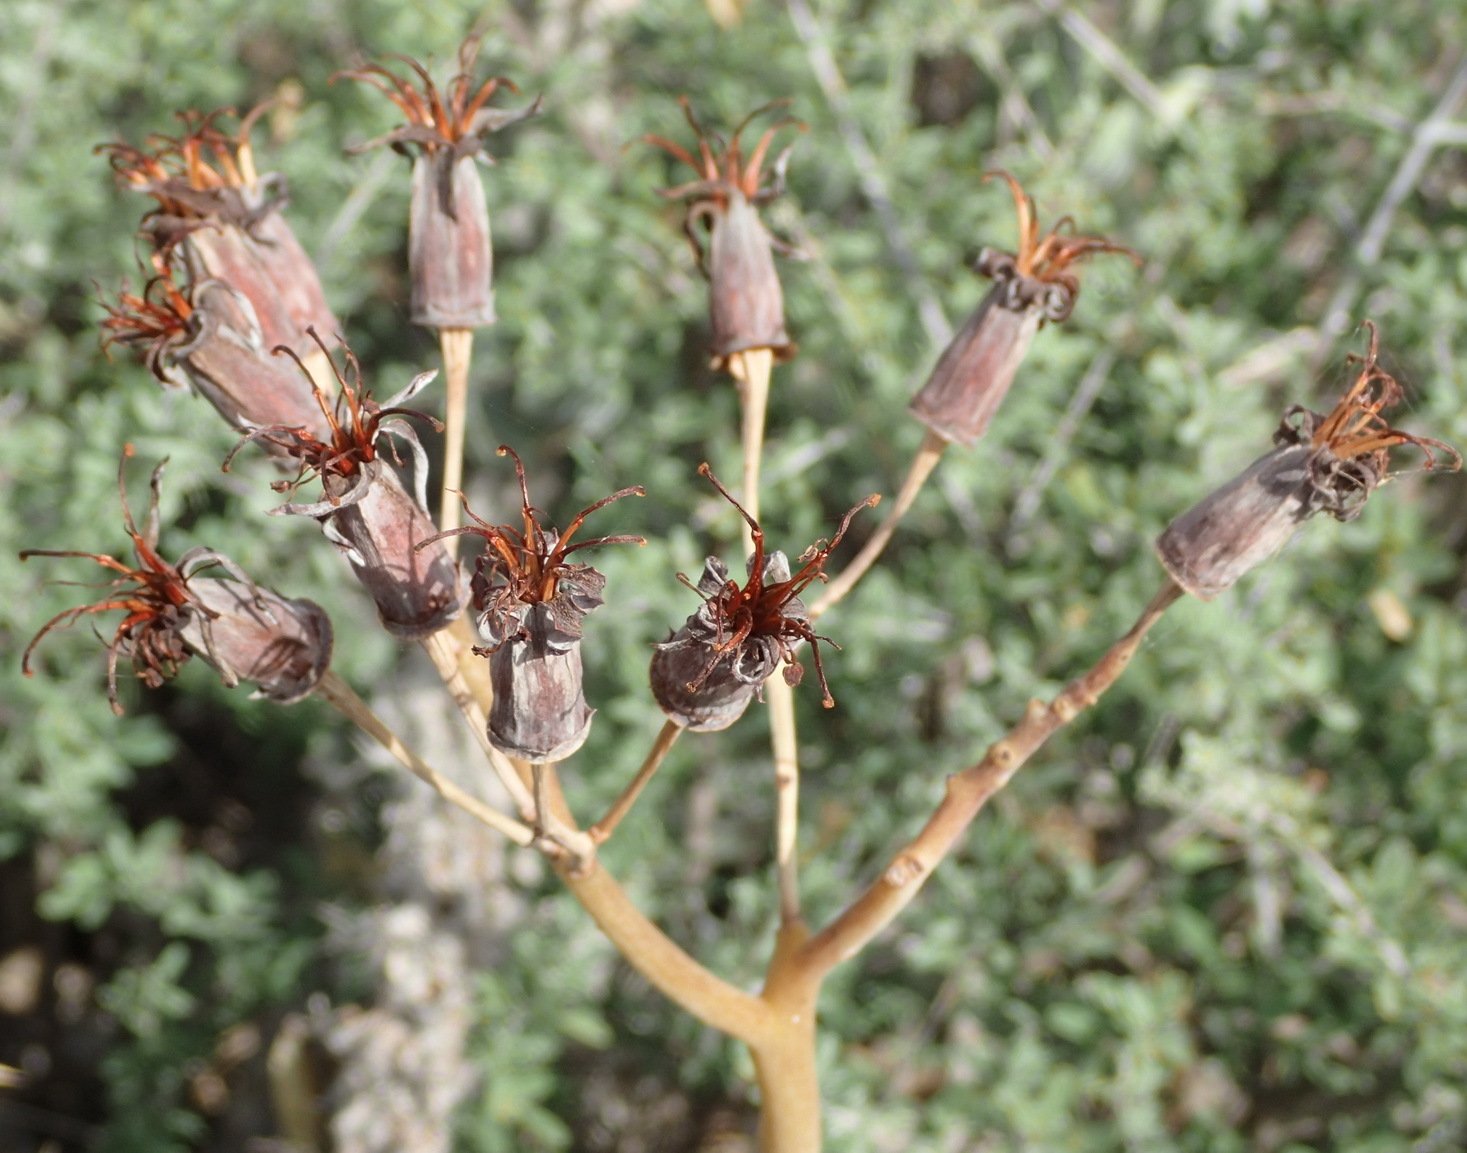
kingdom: Plantae
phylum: Tracheophyta
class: Magnoliopsida
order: Saxifragales
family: Crassulaceae
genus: Cotyledon
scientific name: Cotyledon orbiculata
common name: Pig's ear
